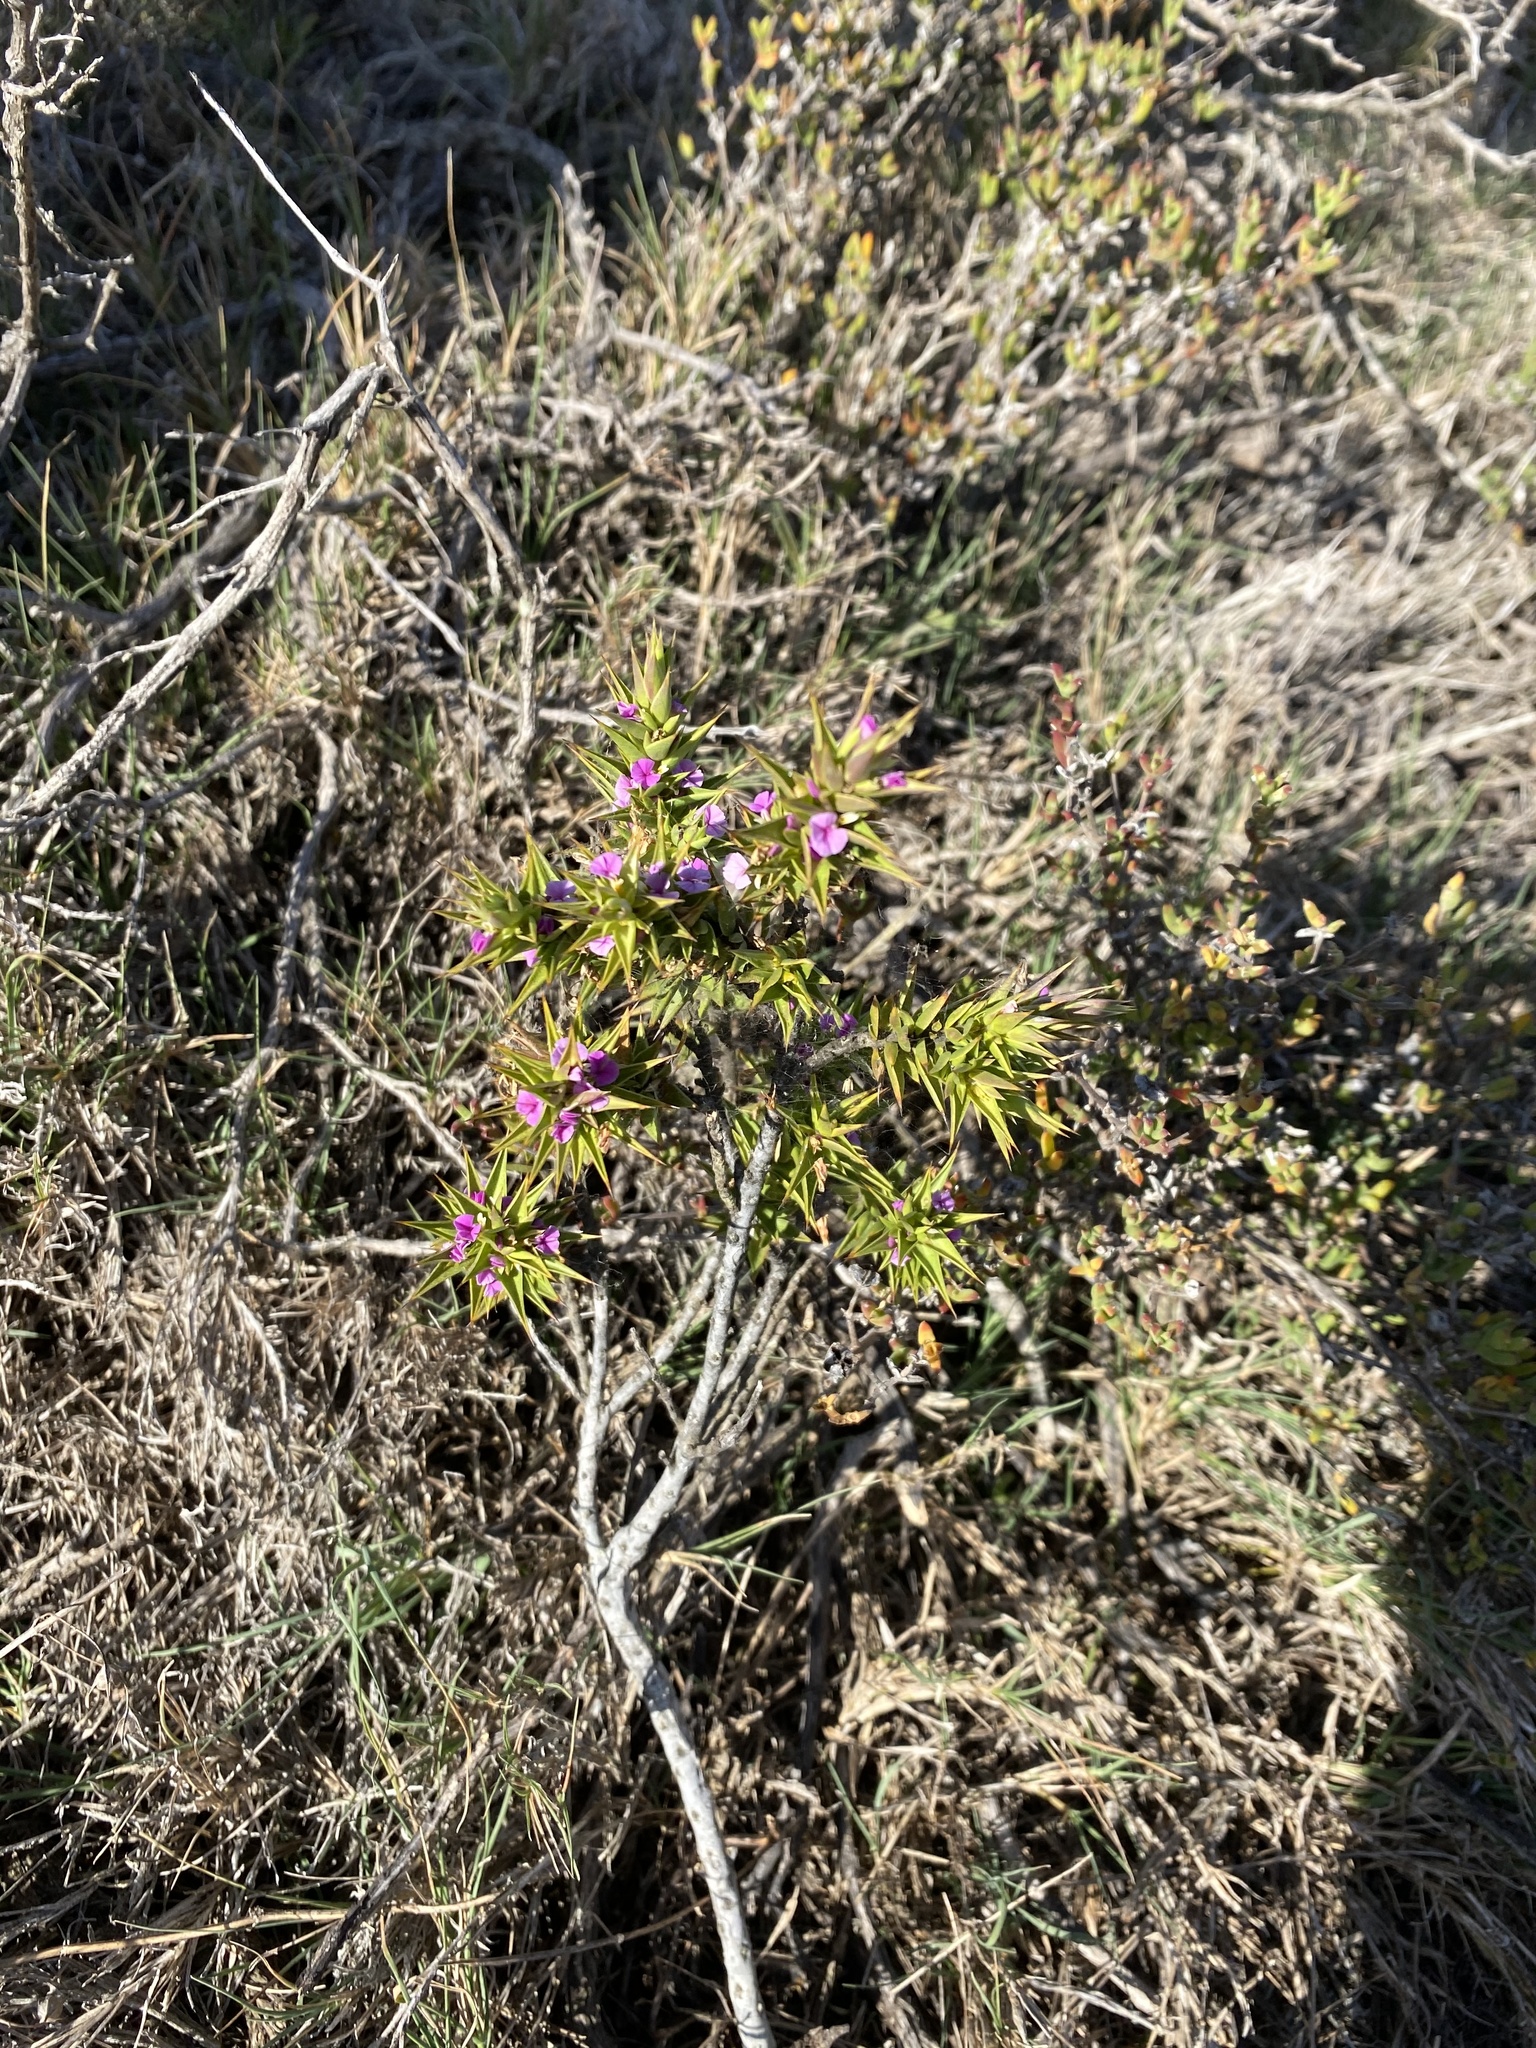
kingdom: Plantae
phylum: Tracheophyta
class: Magnoliopsida
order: Fabales
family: Polygalaceae
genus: Muraltia
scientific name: Muraltia cliffortiifolia
